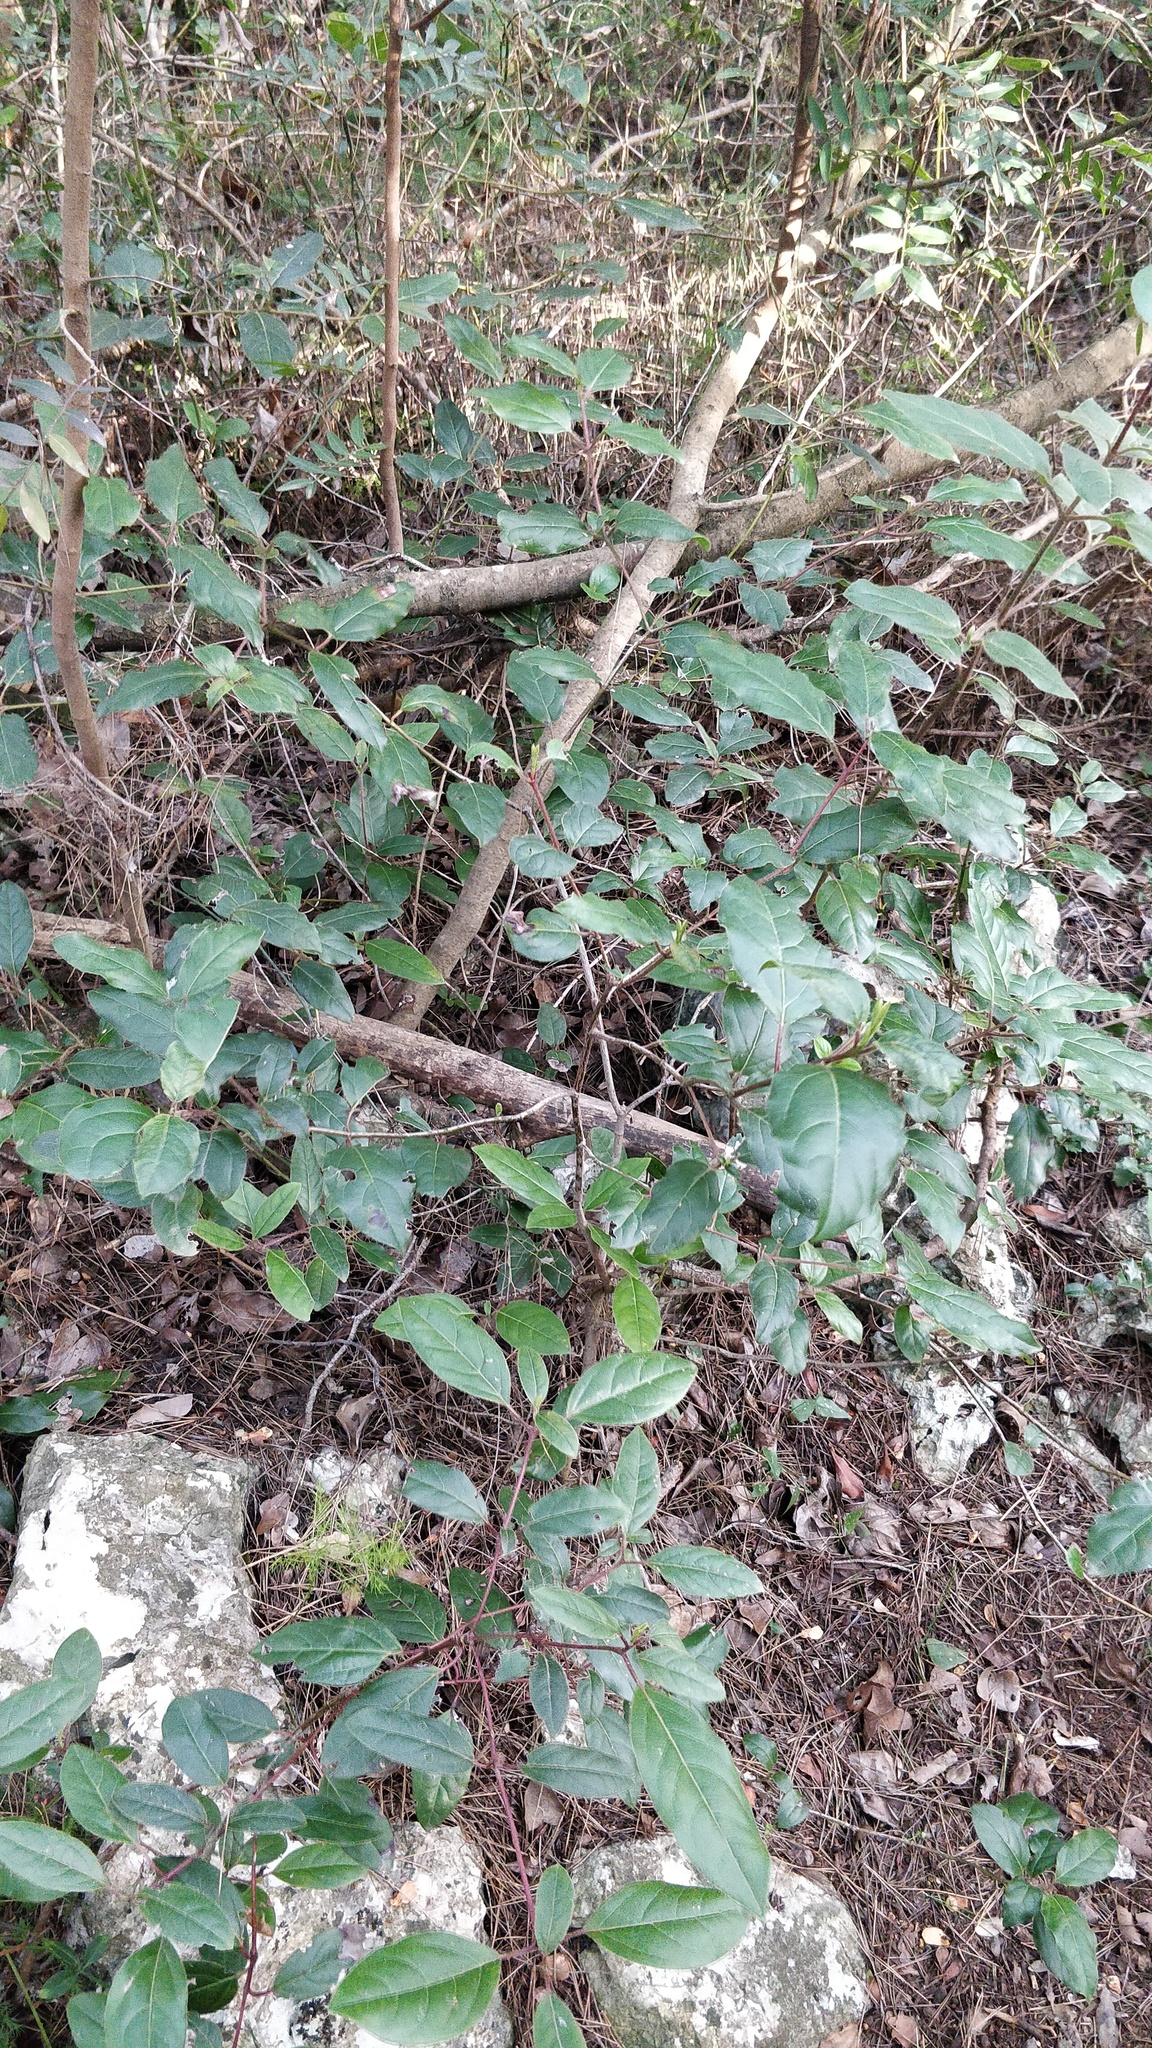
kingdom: Plantae
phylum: Tracheophyta
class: Magnoliopsida
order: Dipsacales
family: Viburnaceae
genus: Viburnum
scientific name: Viburnum tinus
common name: Laurustinus
